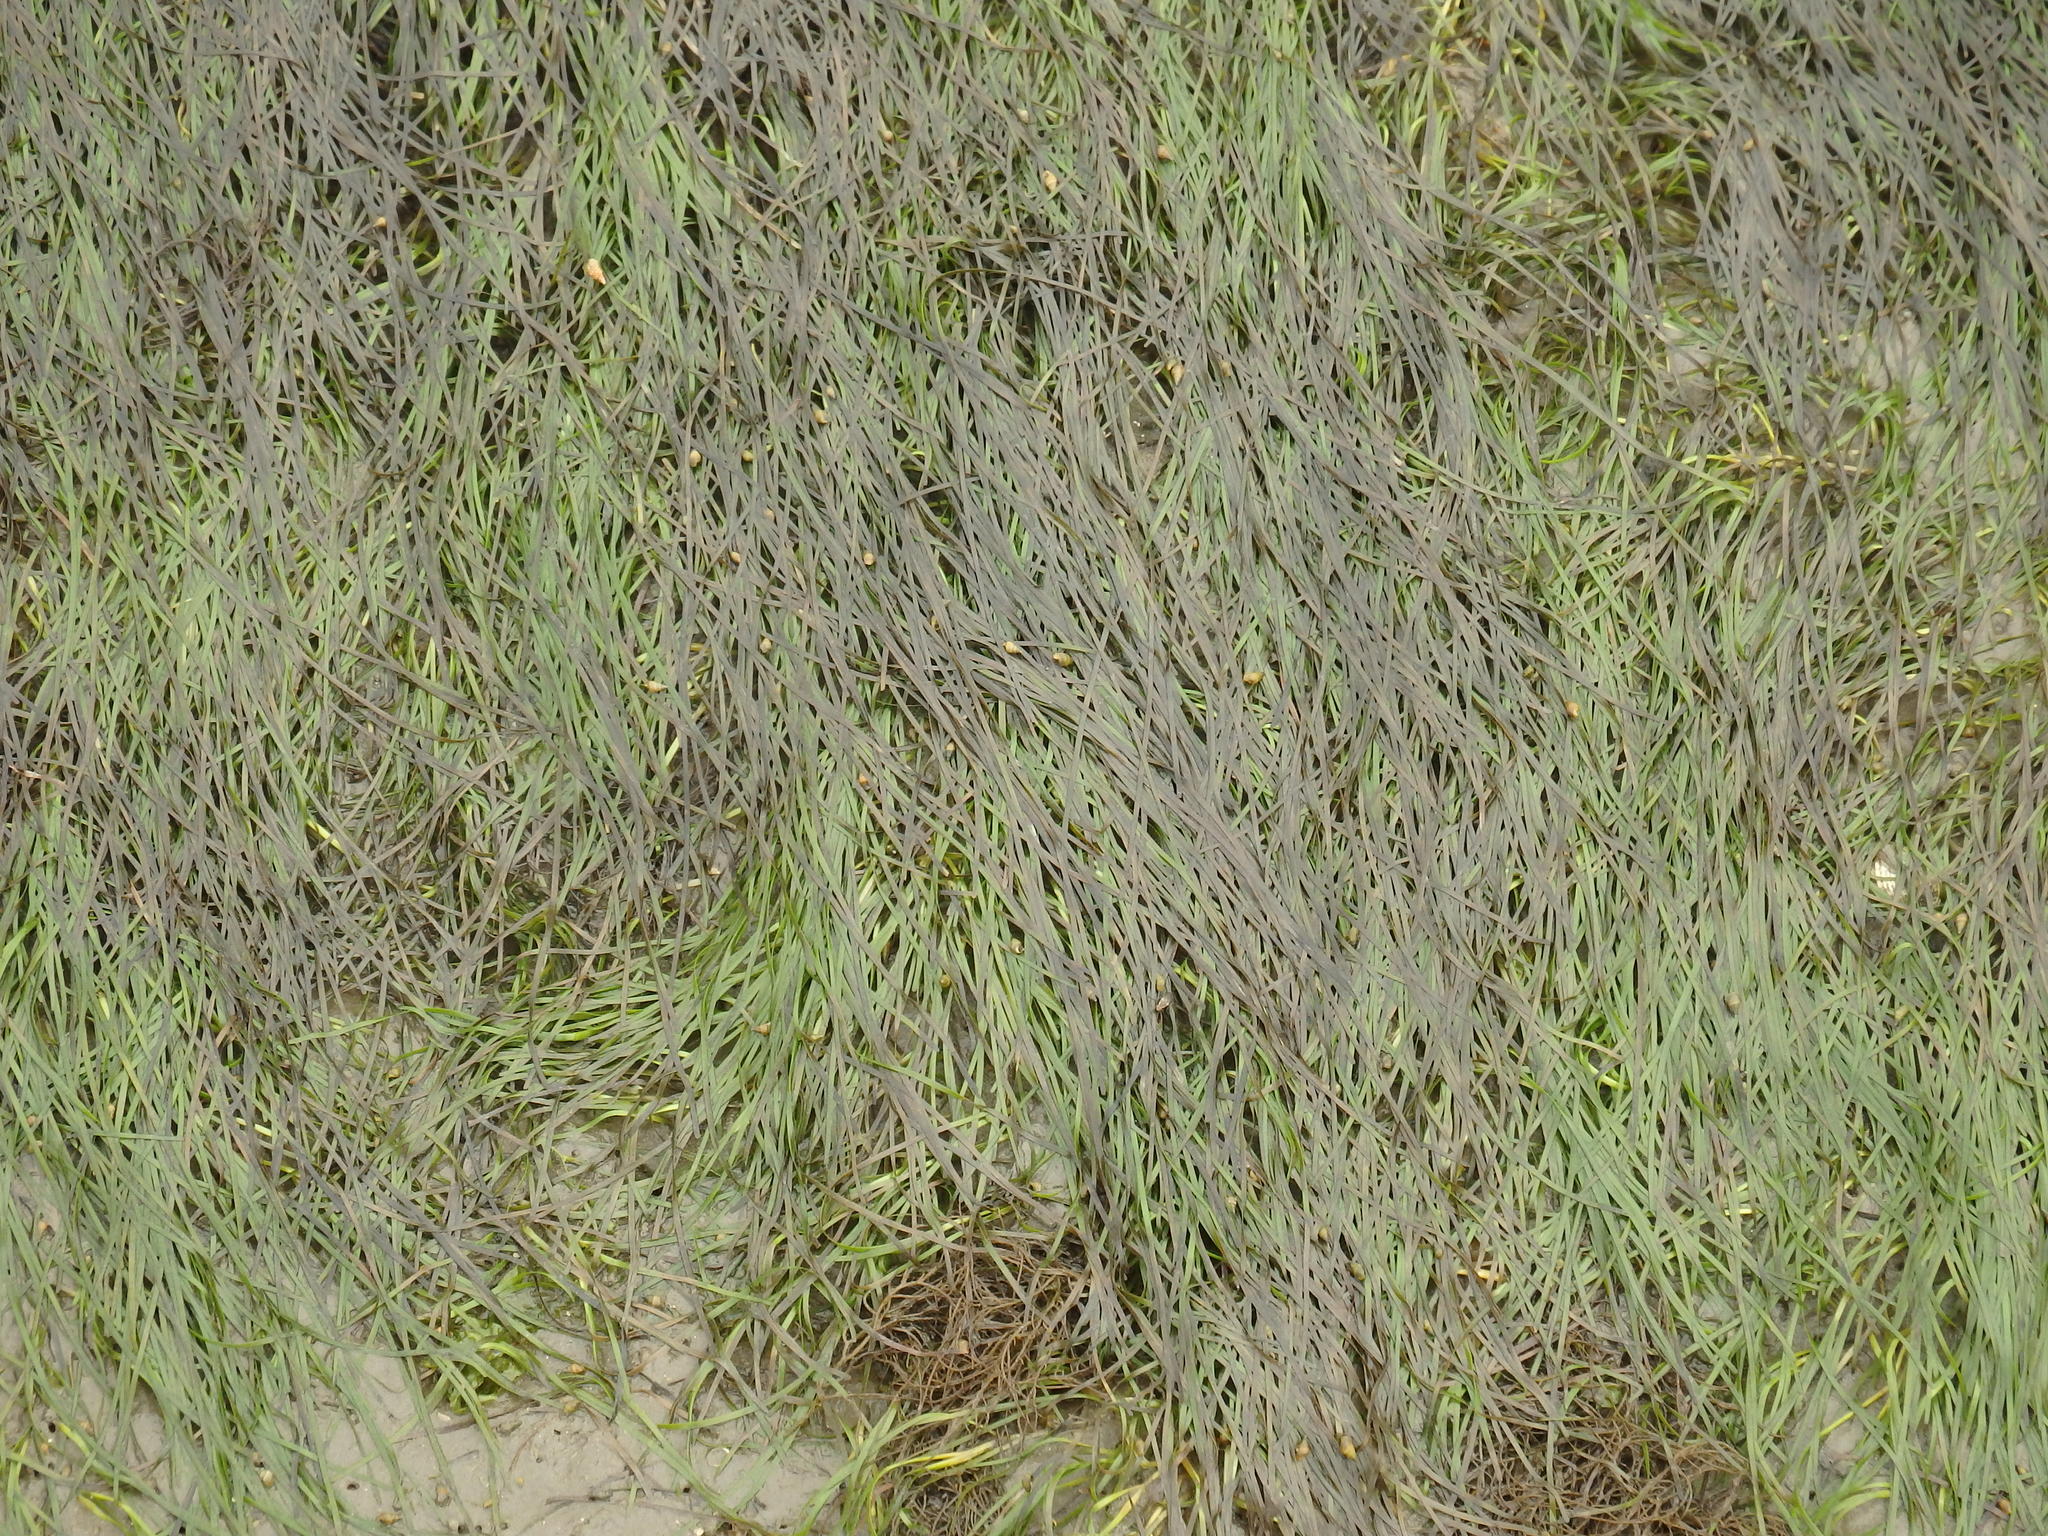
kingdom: Plantae
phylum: Tracheophyta
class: Liliopsida
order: Alismatales
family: Zosteraceae
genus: Zostera
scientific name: Zostera noltii
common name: Dwarf eelgrass
